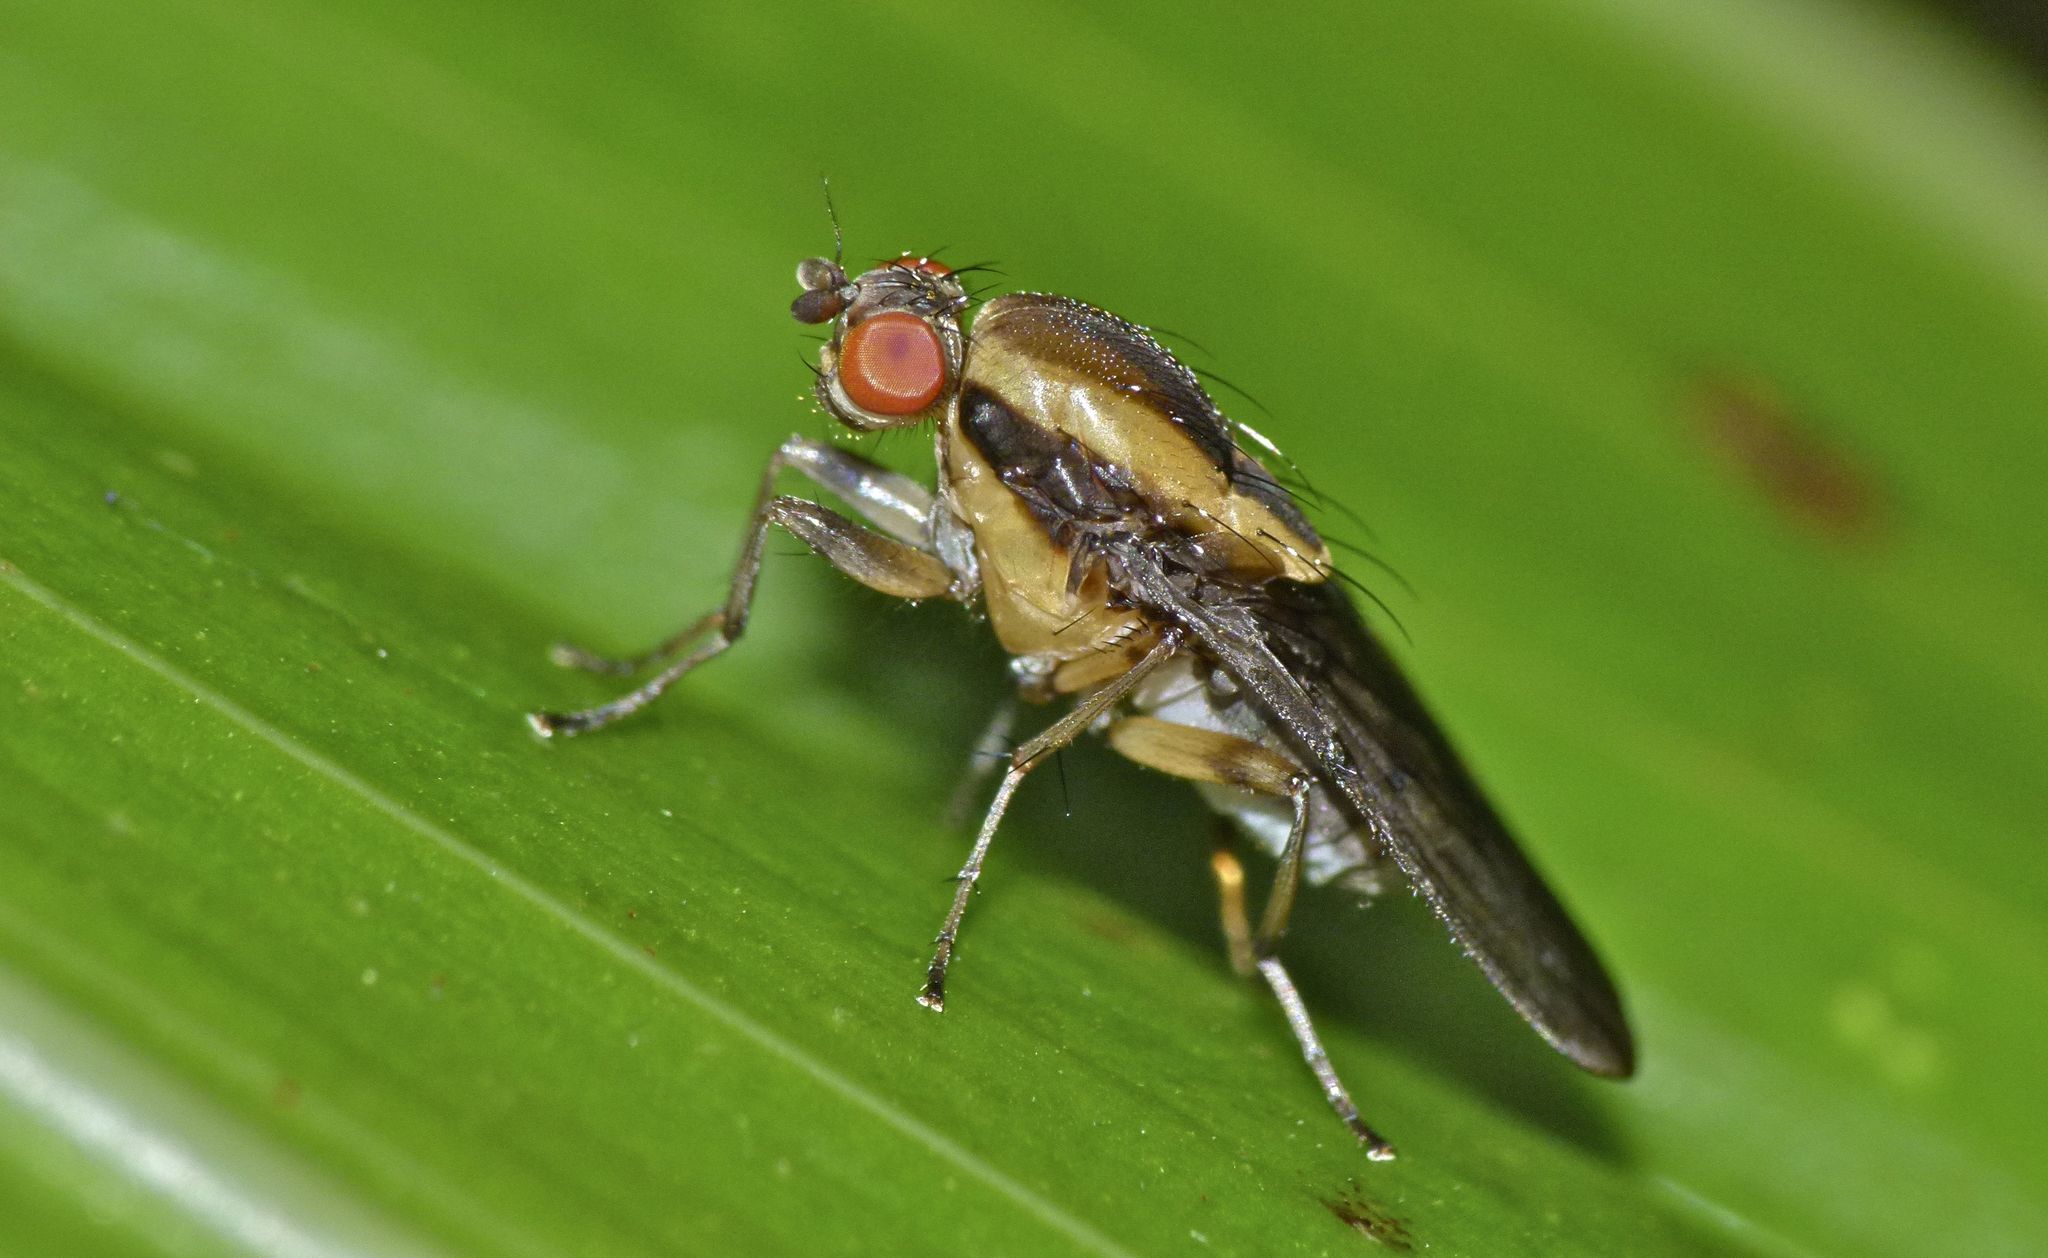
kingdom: Animalia
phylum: Arthropoda
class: Insecta
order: Diptera
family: Heleomyzidae
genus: Allophylopsis
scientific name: Allophylopsis scutellata
